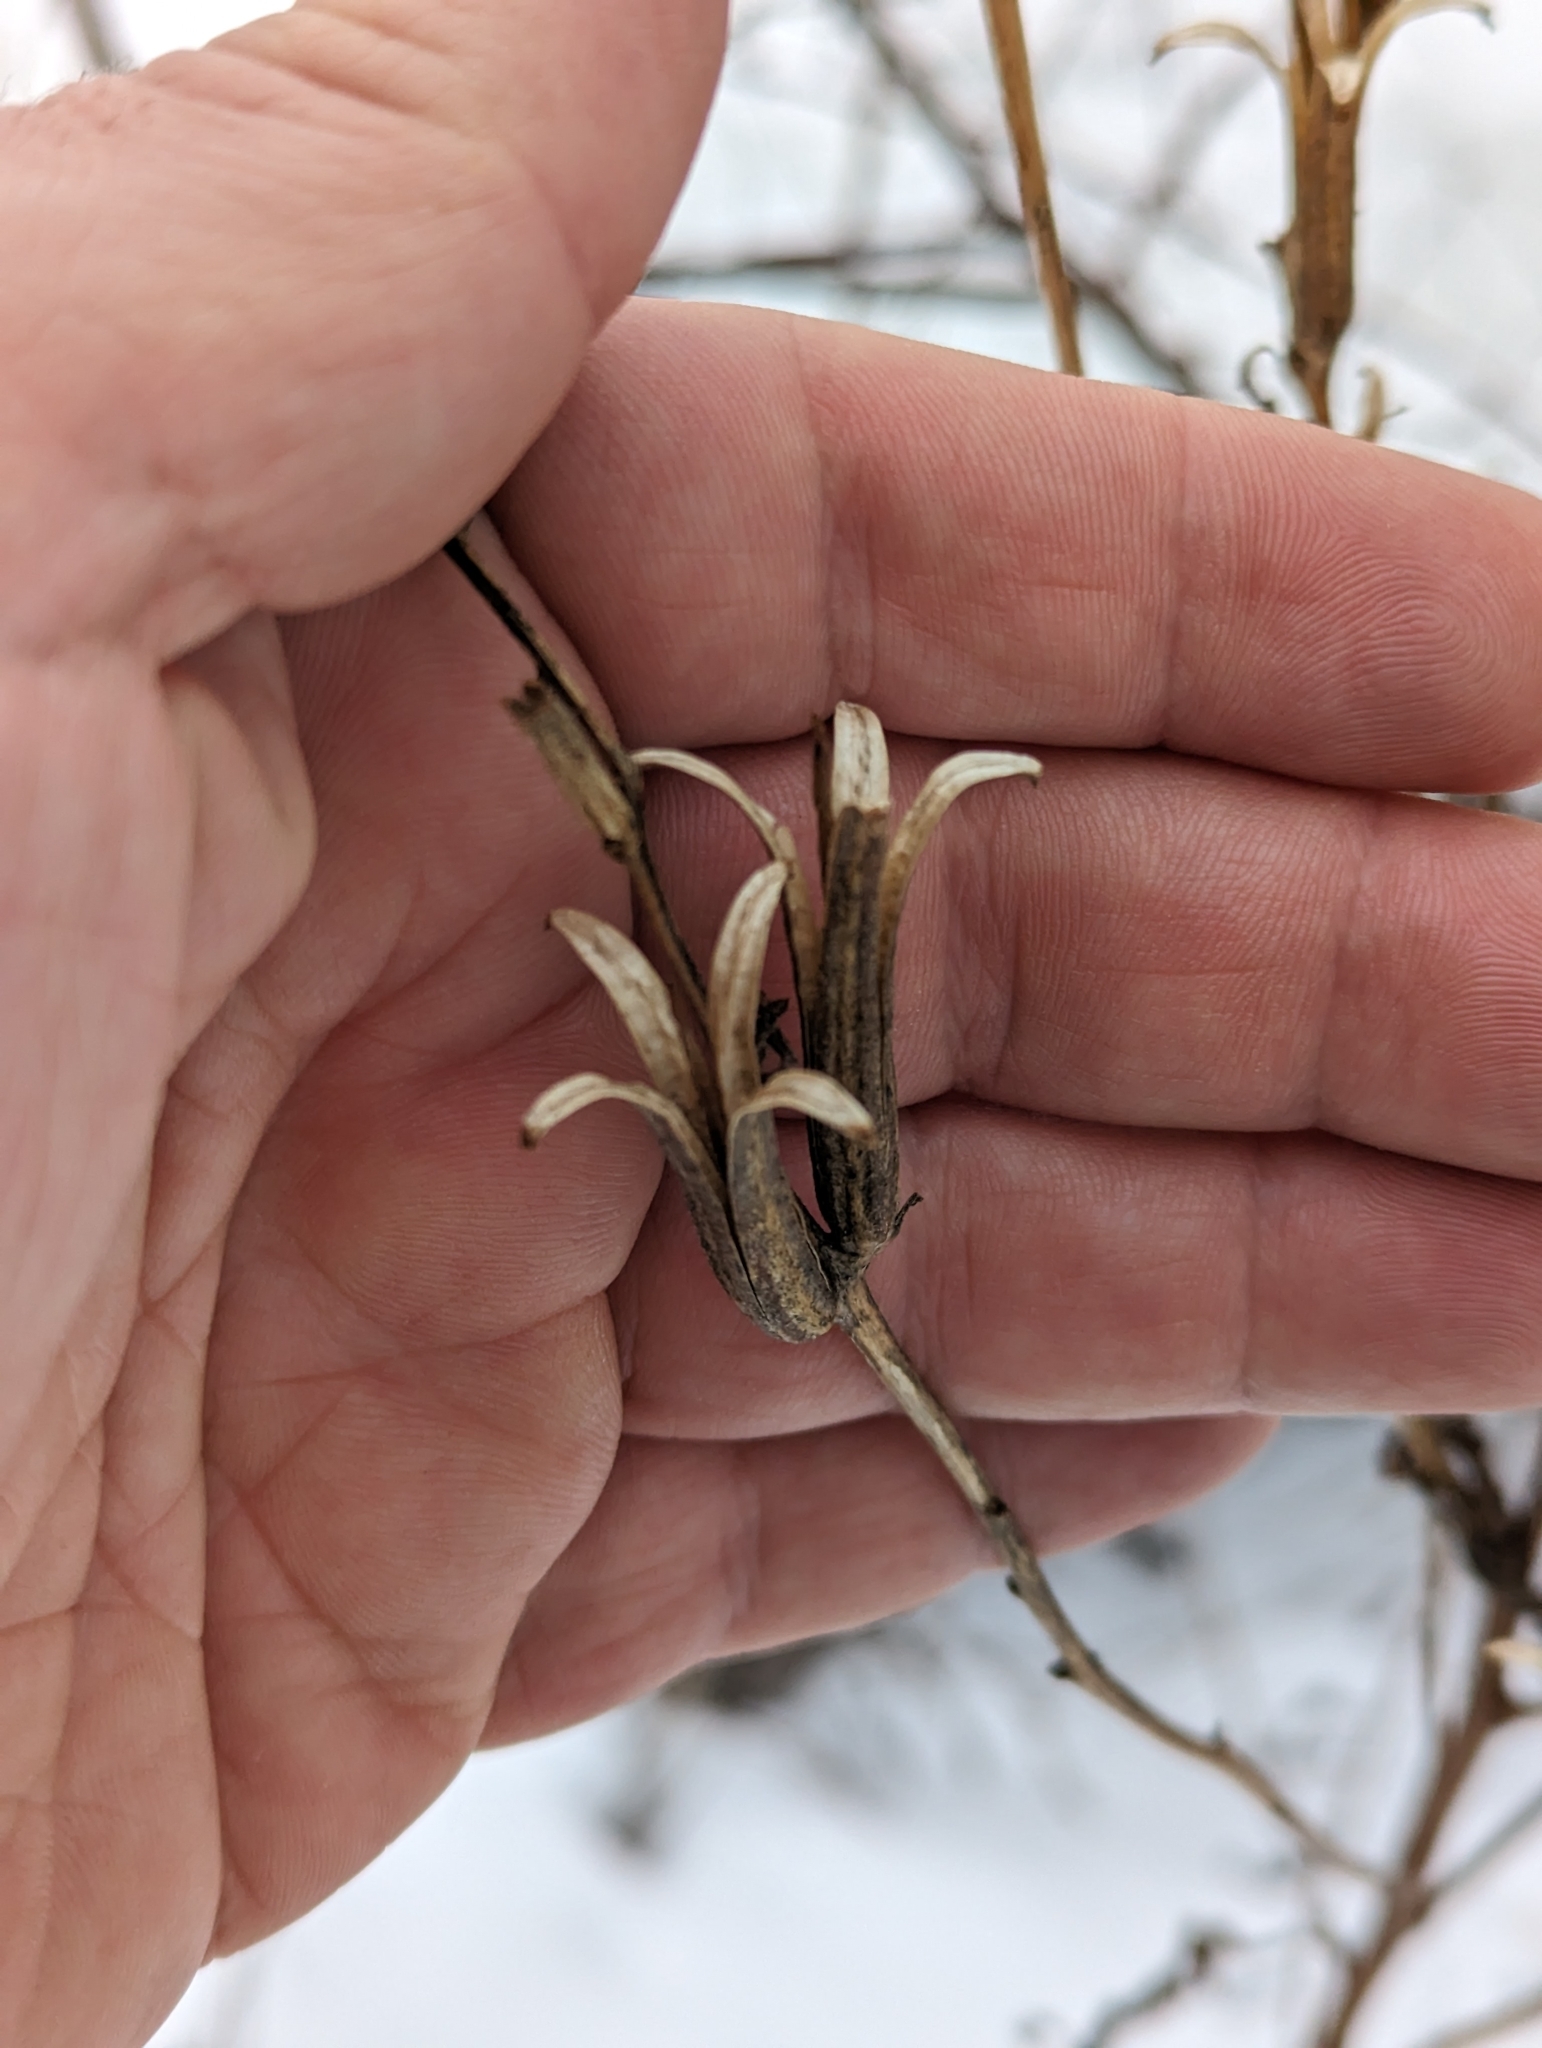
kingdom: Plantae
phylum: Tracheophyta
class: Magnoliopsida
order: Myrtales
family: Onagraceae
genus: Oenothera
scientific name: Oenothera biennis
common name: Common evening-primrose
